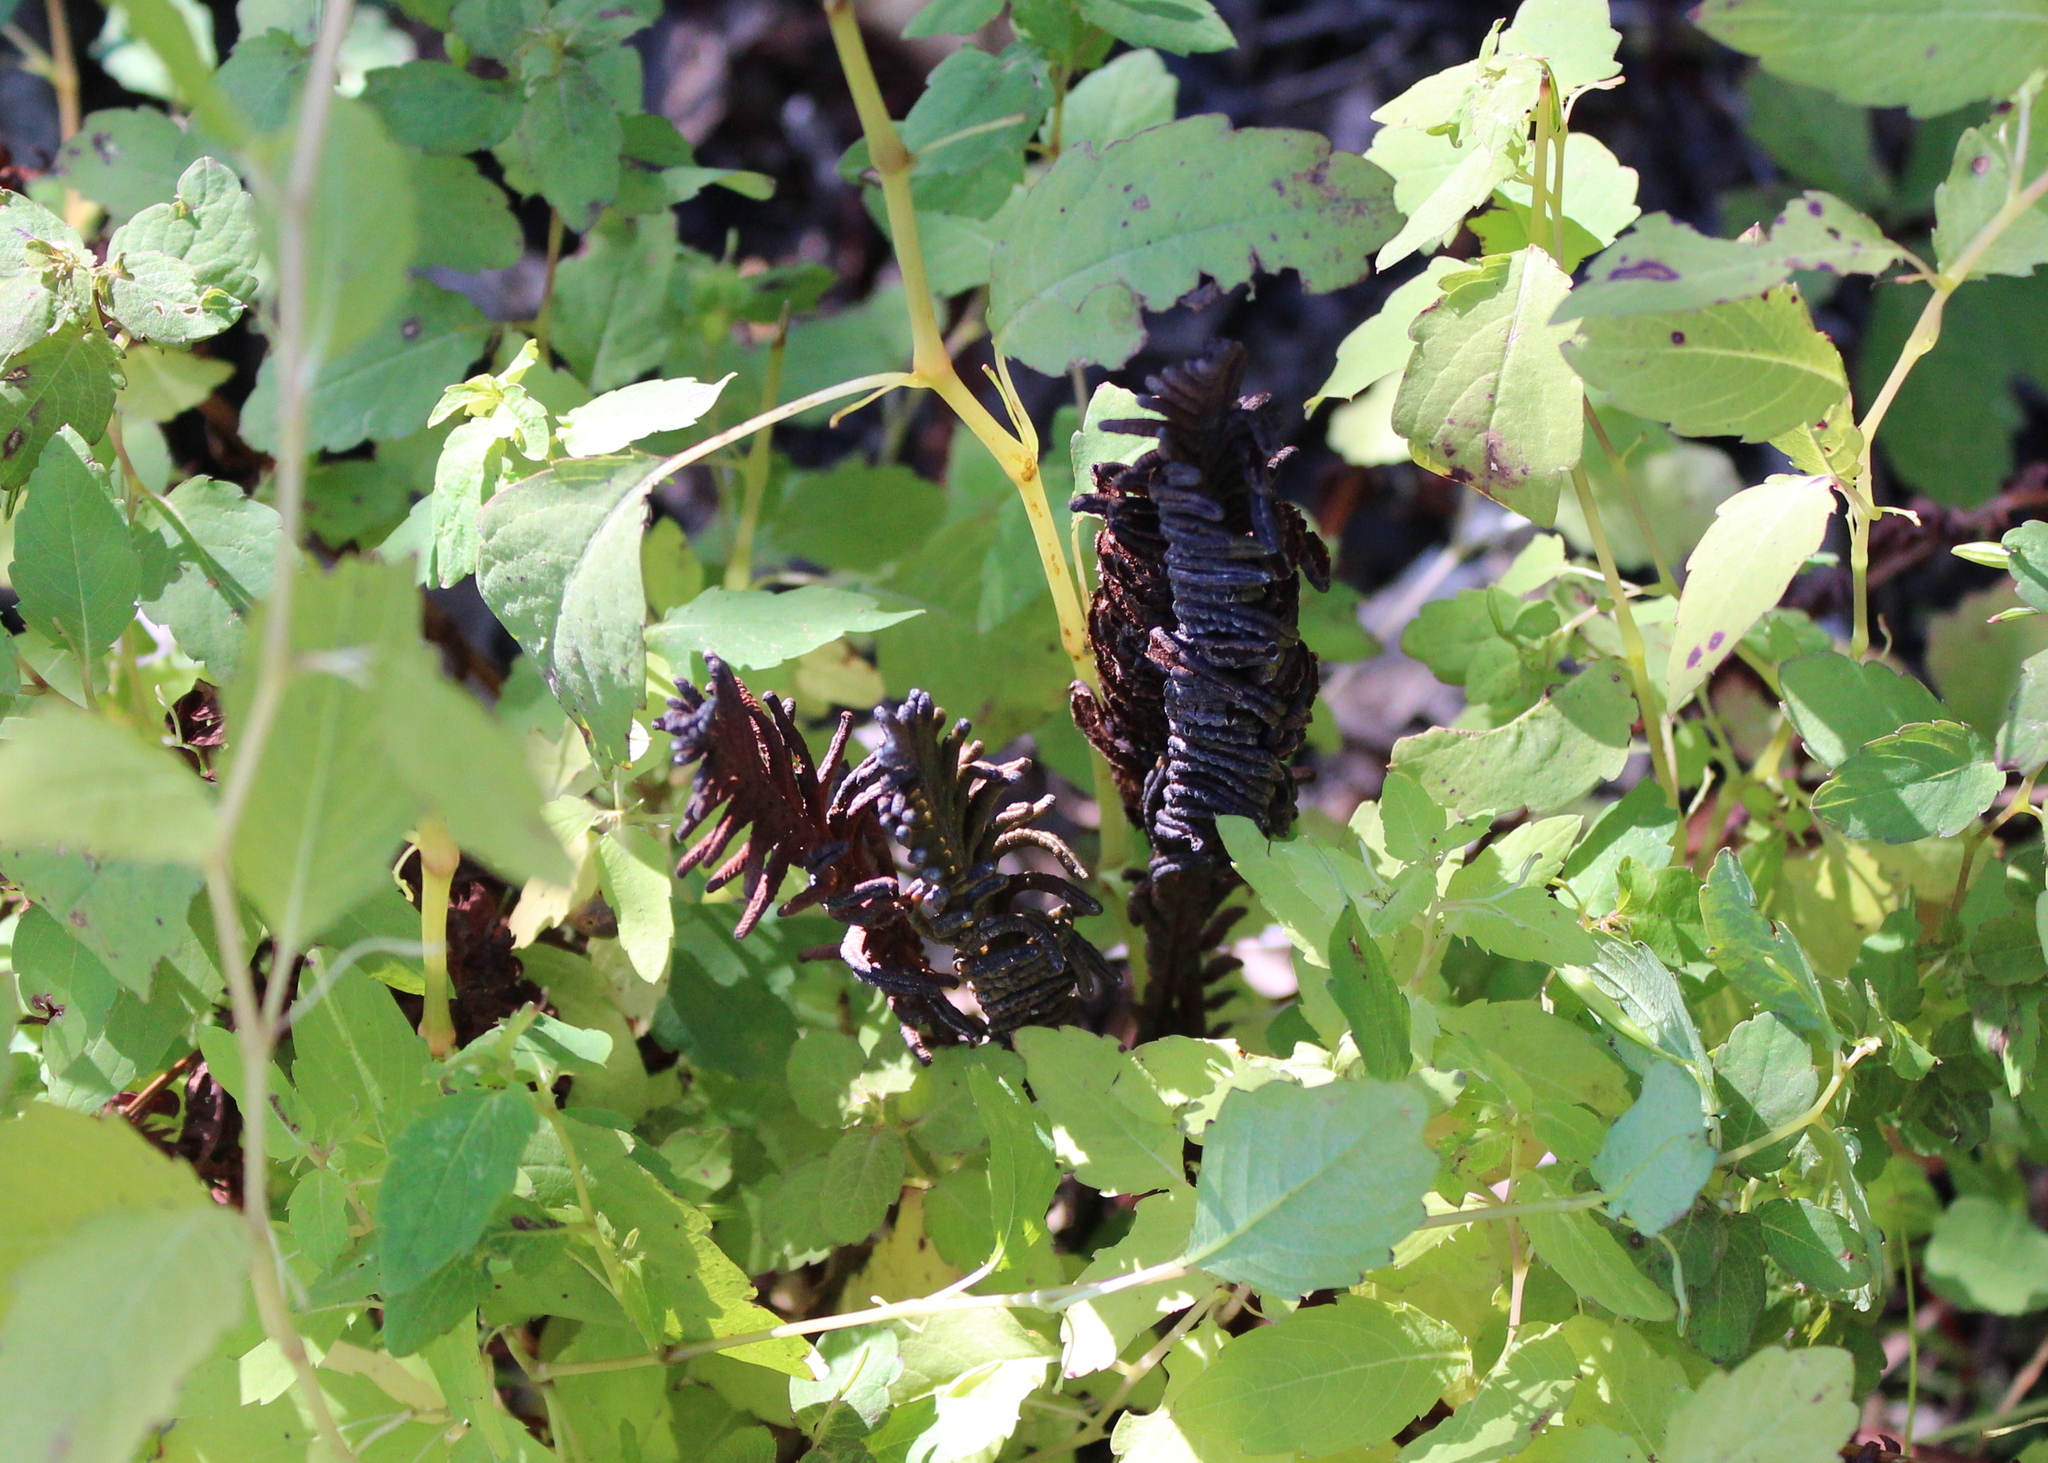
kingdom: Plantae
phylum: Tracheophyta
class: Polypodiopsida
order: Polypodiales
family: Onocleaceae
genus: Matteuccia
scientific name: Matteuccia struthiopteris
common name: Ostrich fern
